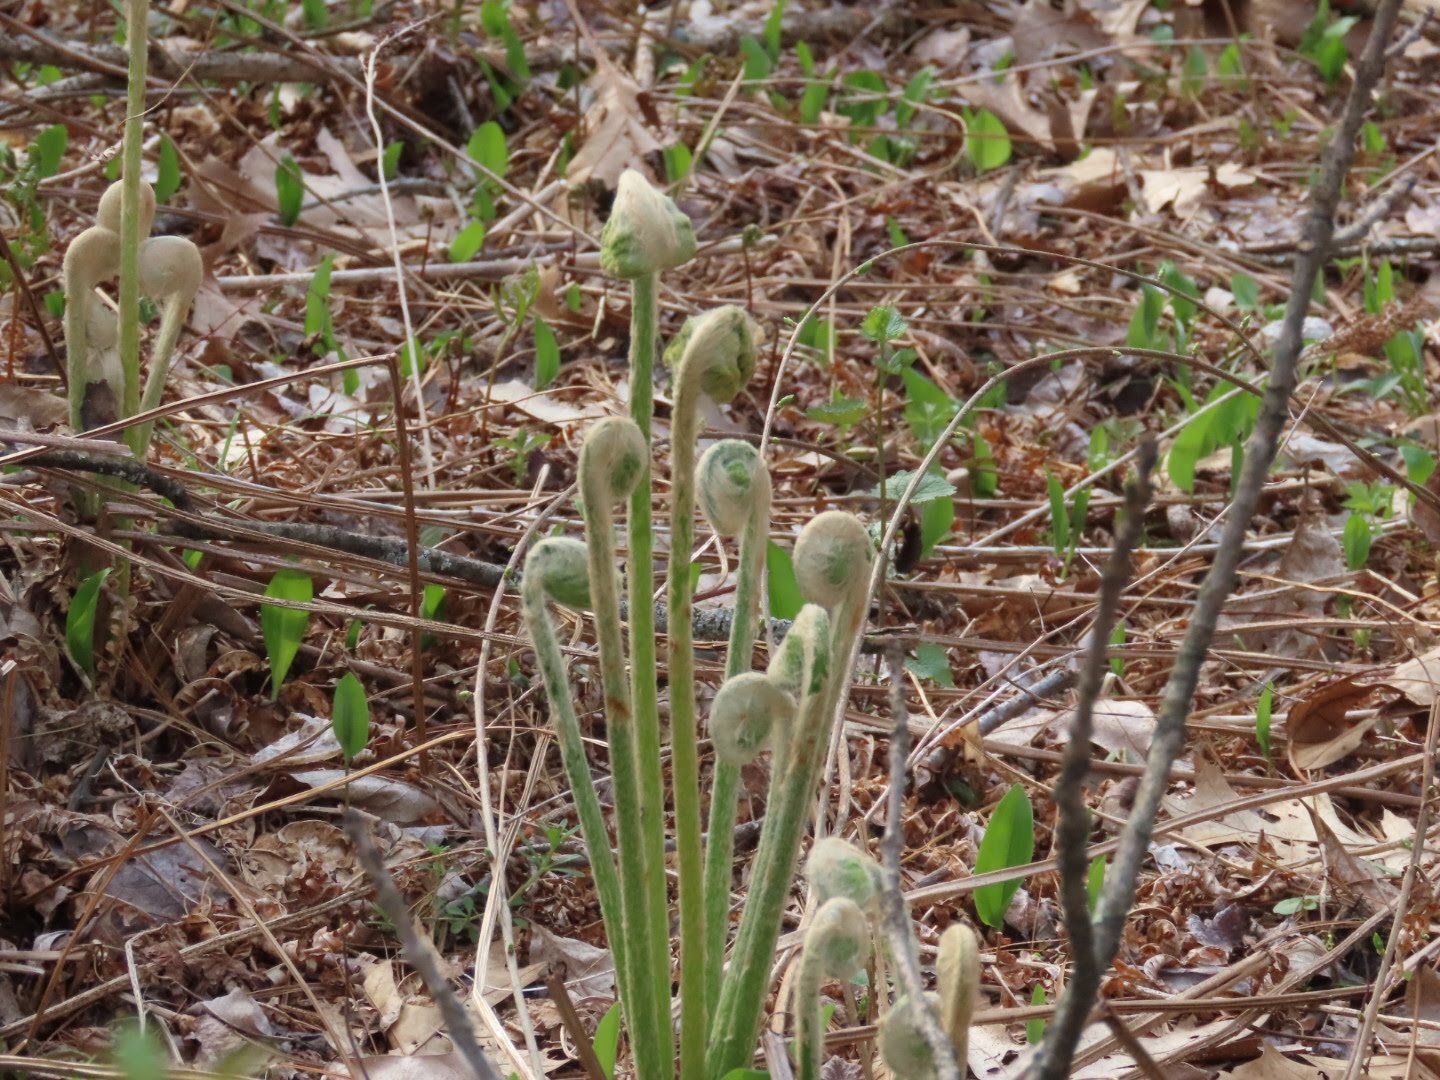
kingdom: Plantae
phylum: Tracheophyta
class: Polypodiopsida
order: Osmundales
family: Osmundaceae
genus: Osmundastrum
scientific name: Osmundastrum cinnamomeum
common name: Cinnamon fern
